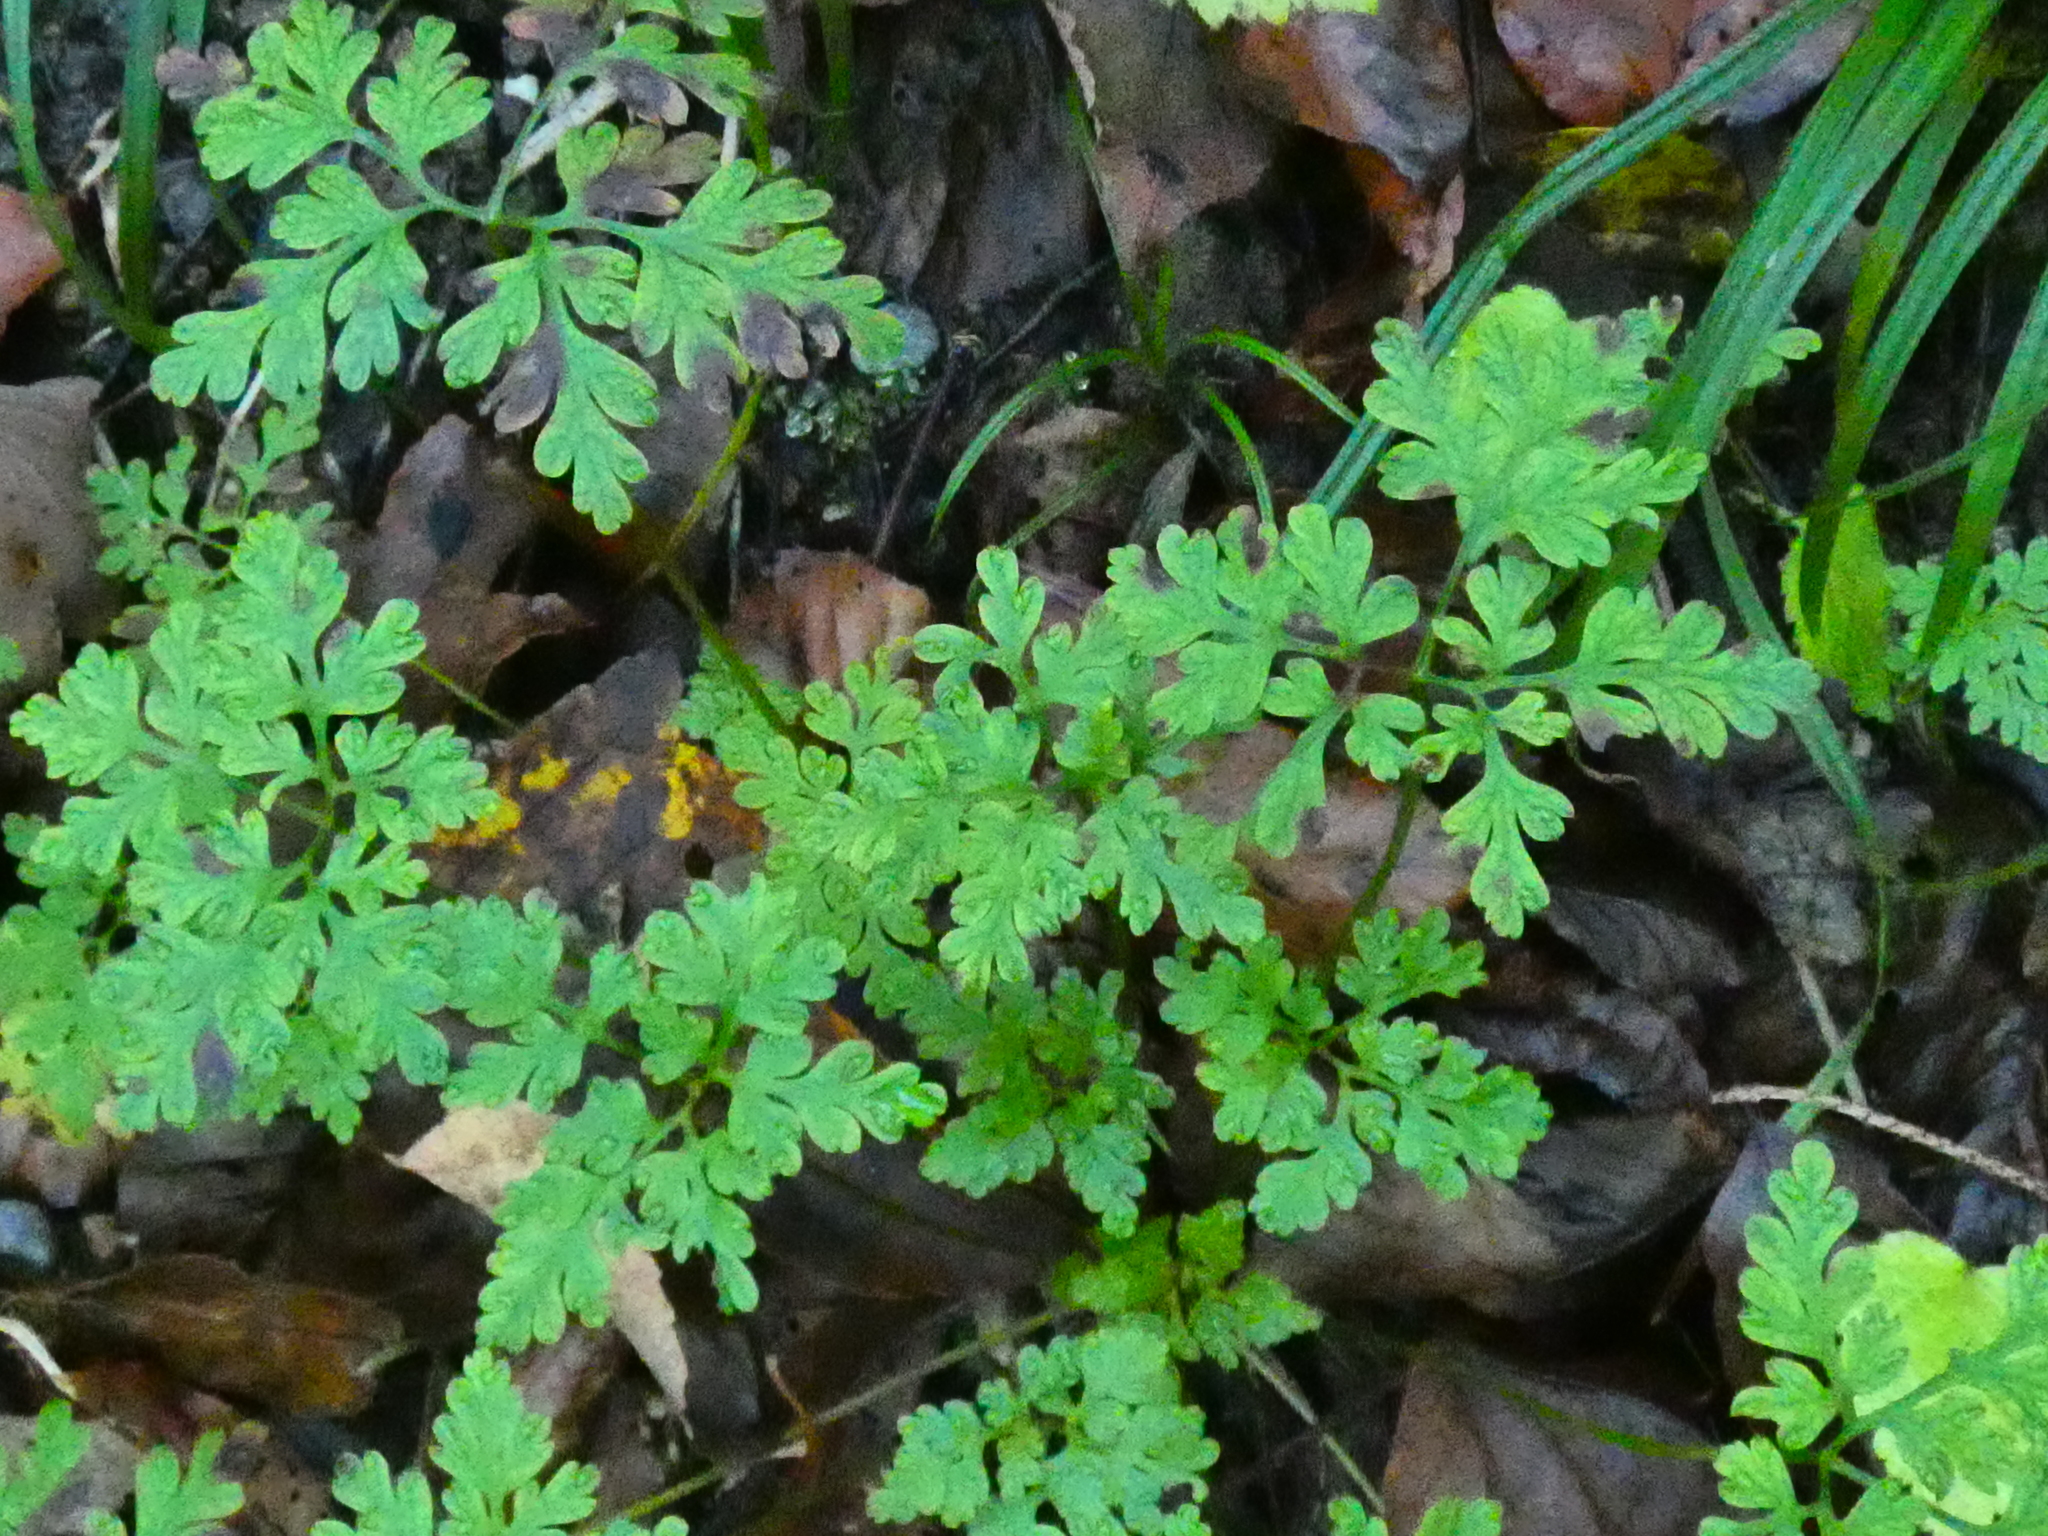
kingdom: Plantae
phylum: Tracheophyta
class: Magnoliopsida
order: Geraniales
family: Geraniaceae
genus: Geranium
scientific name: Geranium robertianum
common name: Herb-robert
